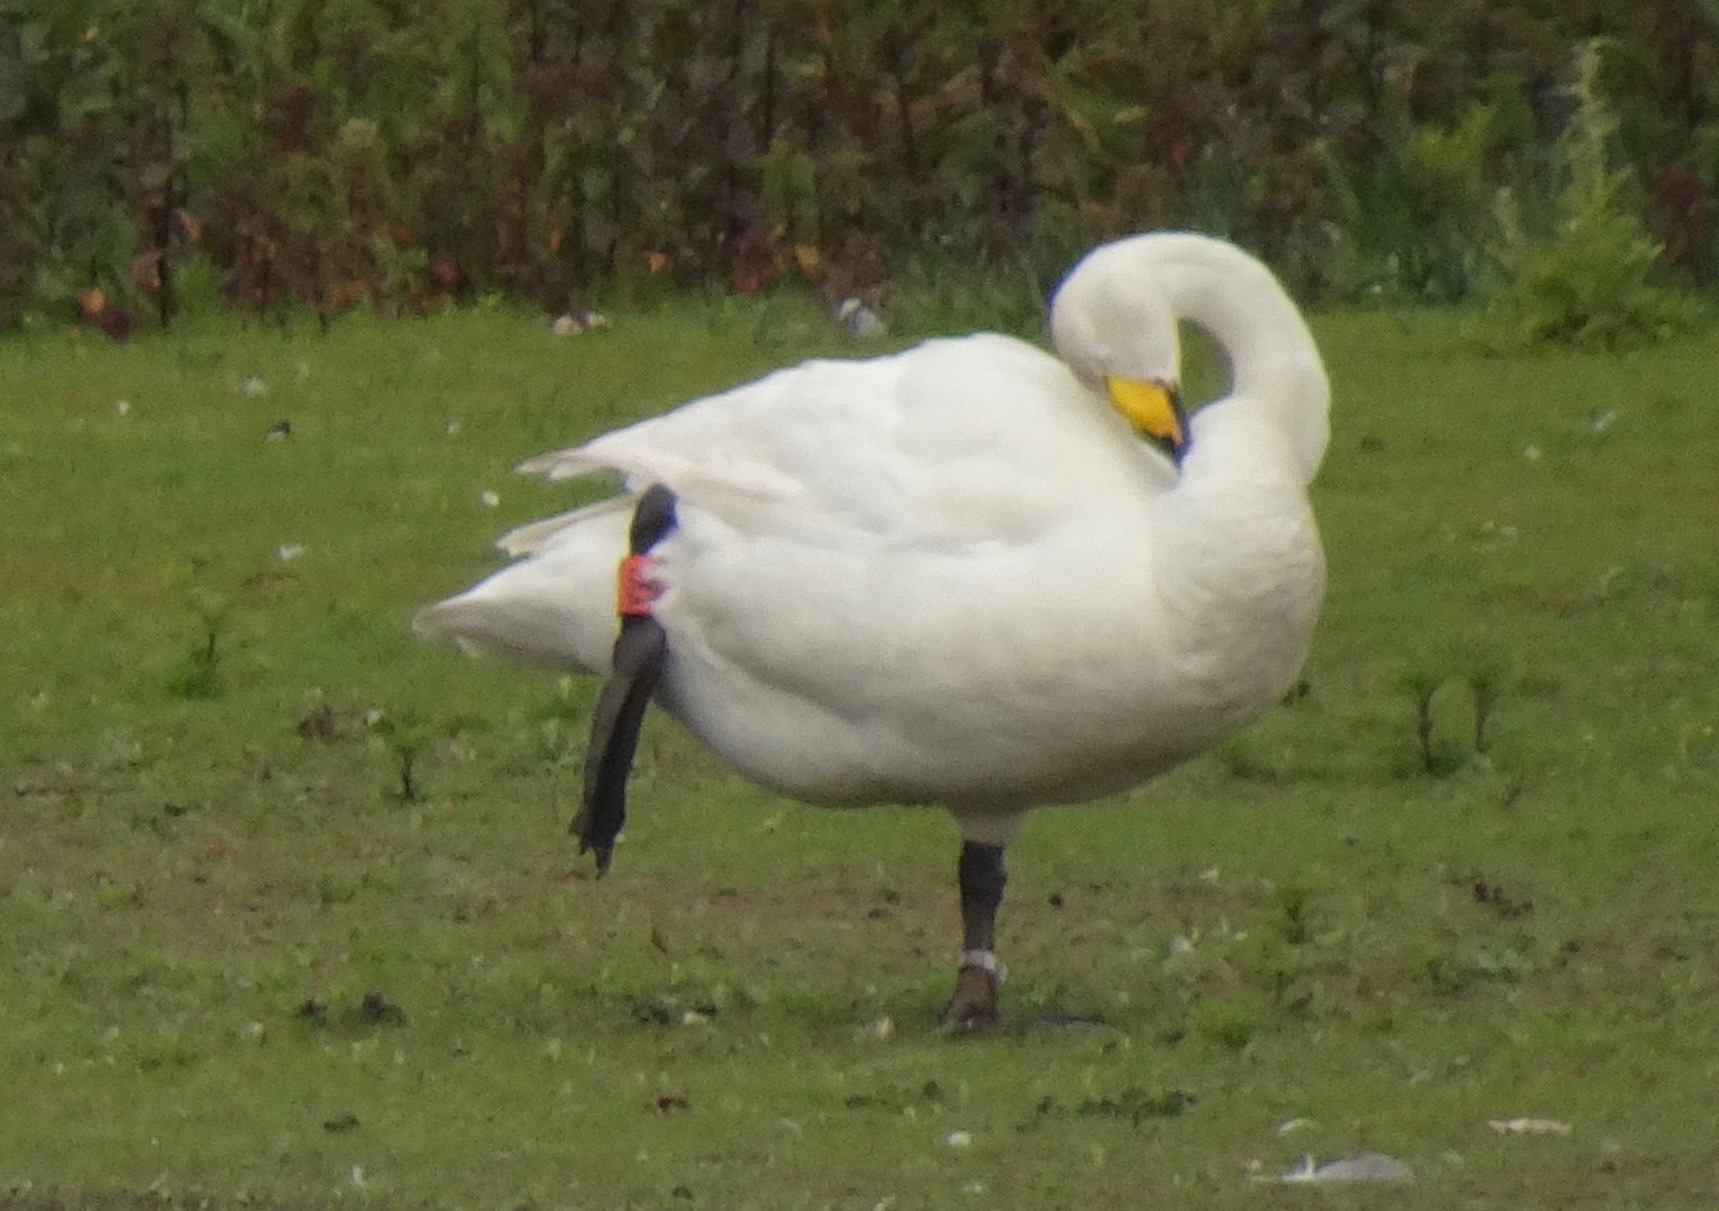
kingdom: Animalia
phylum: Chordata
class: Aves
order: Anseriformes
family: Anatidae
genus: Cygnus
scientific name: Cygnus cygnus
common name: Whooper swan
